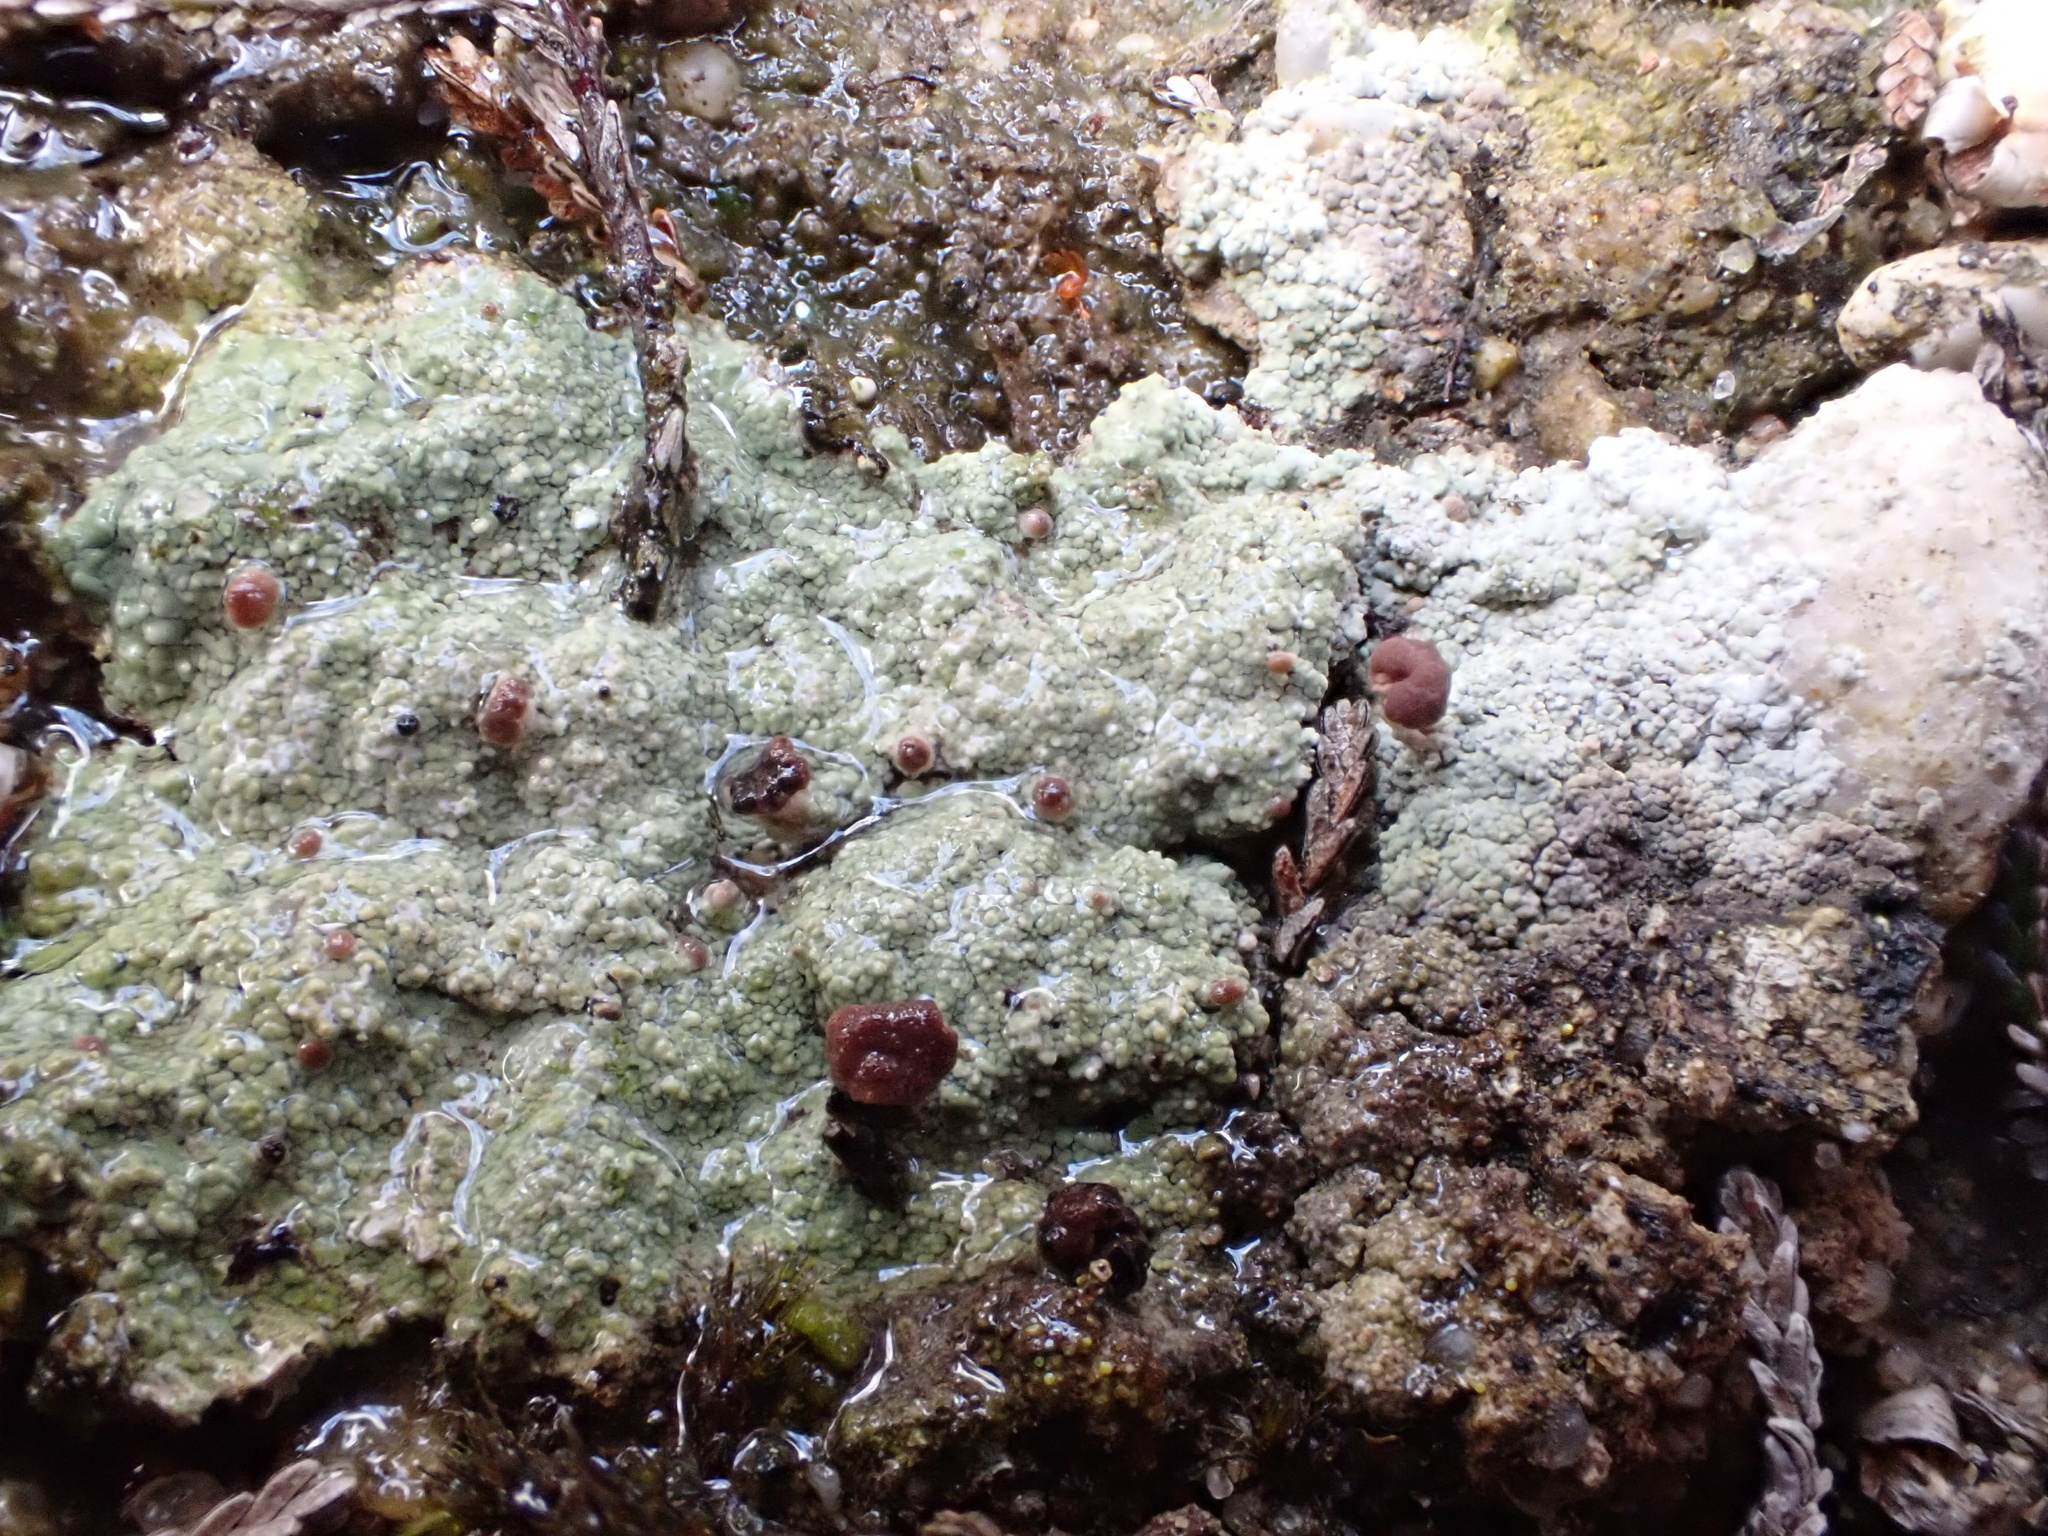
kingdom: Fungi
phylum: Ascomycota
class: Lecanoromycetes
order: Baeomycetales
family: Baeomycetaceae
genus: Baeomyces
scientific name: Baeomyces rufus
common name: Brown beret lichen
